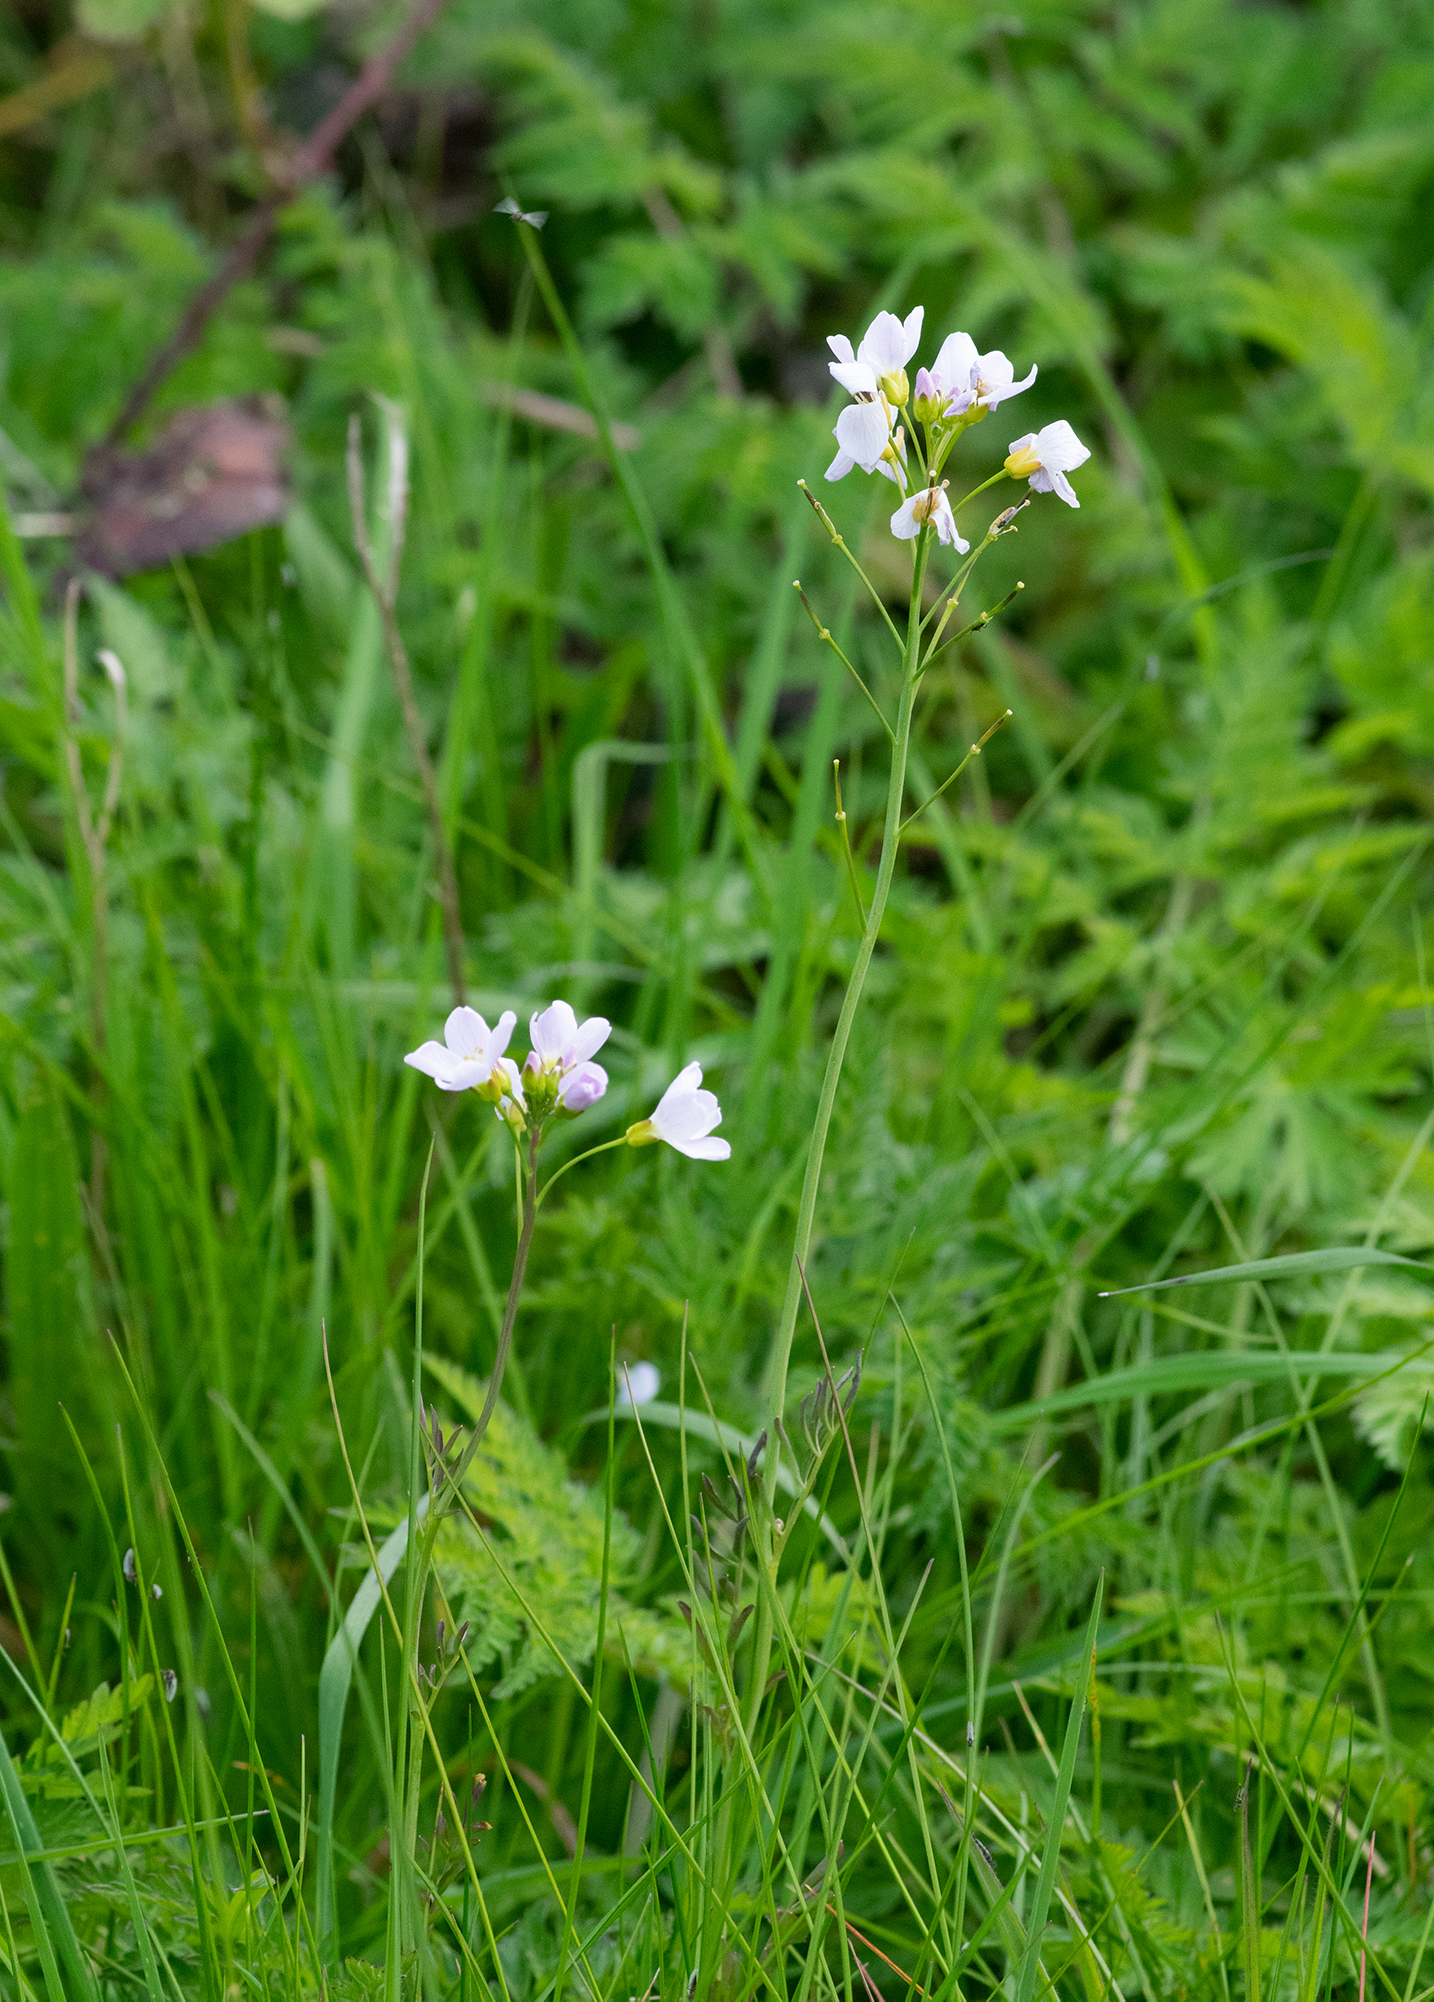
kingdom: Plantae
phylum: Tracheophyta
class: Magnoliopsida
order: Brassicales
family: Brassicaceae
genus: Cardamine
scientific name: Cardamine pratensis
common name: Cuckoo flower
